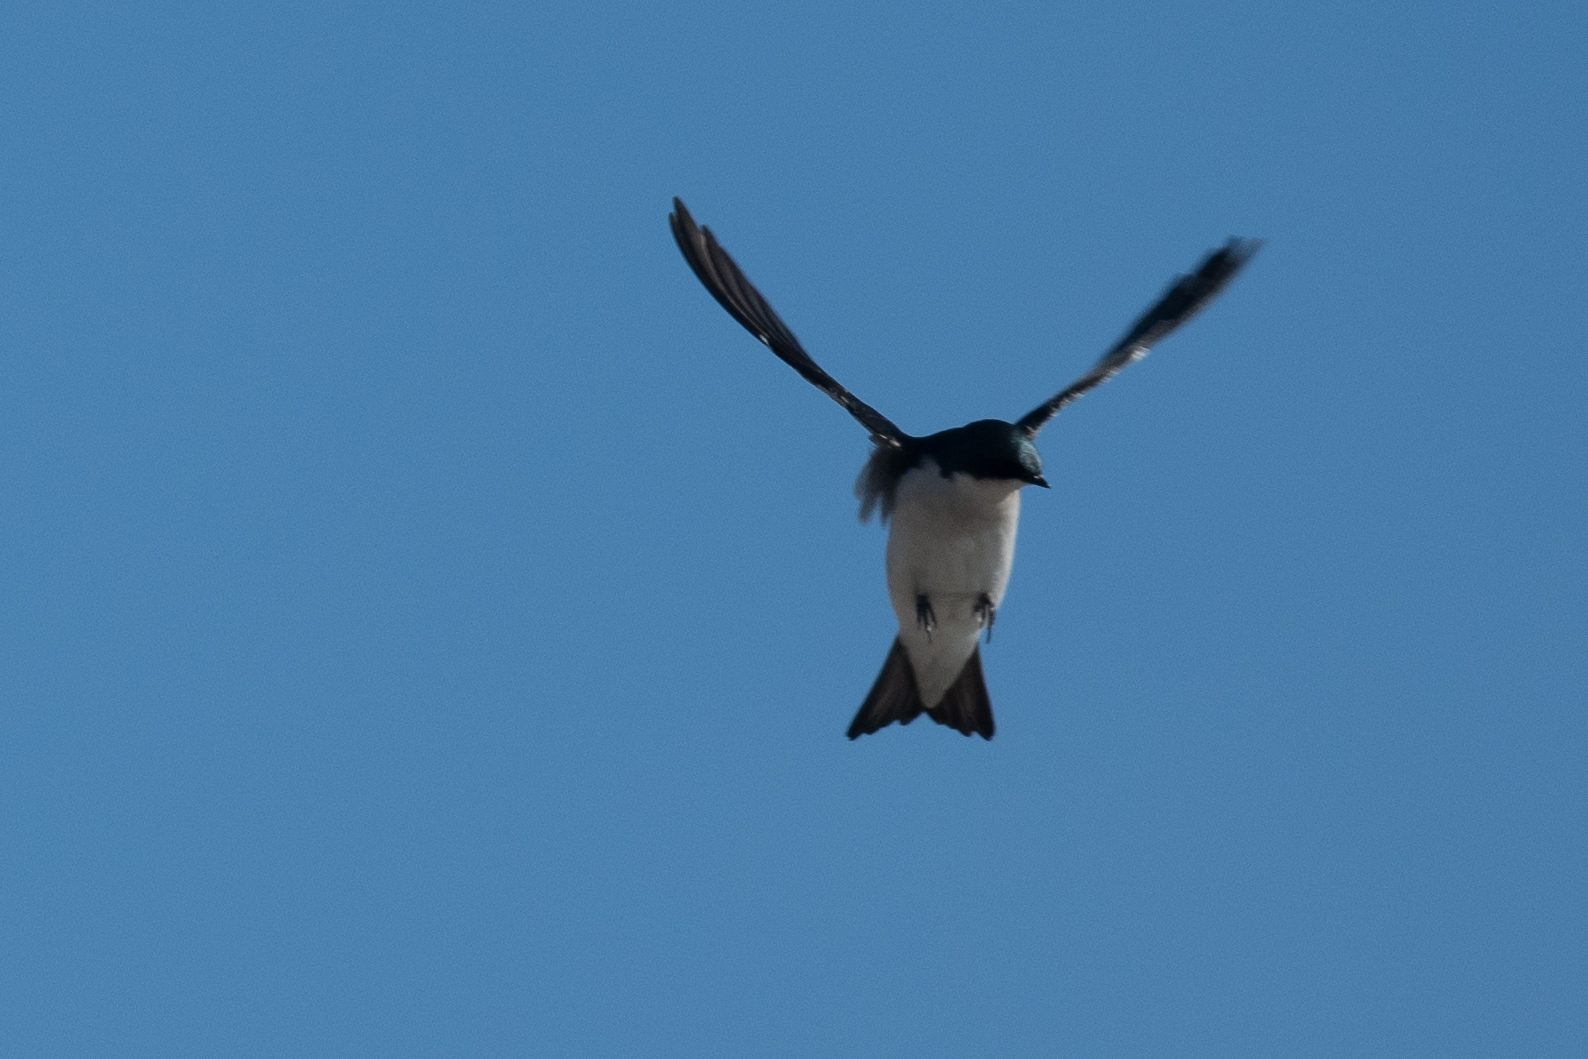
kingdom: Animalia
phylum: Chordata
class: Aves
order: Passeriformes
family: Hirundinidae
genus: Tachycineta
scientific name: Tachycineta bicolor
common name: Tree swallow
